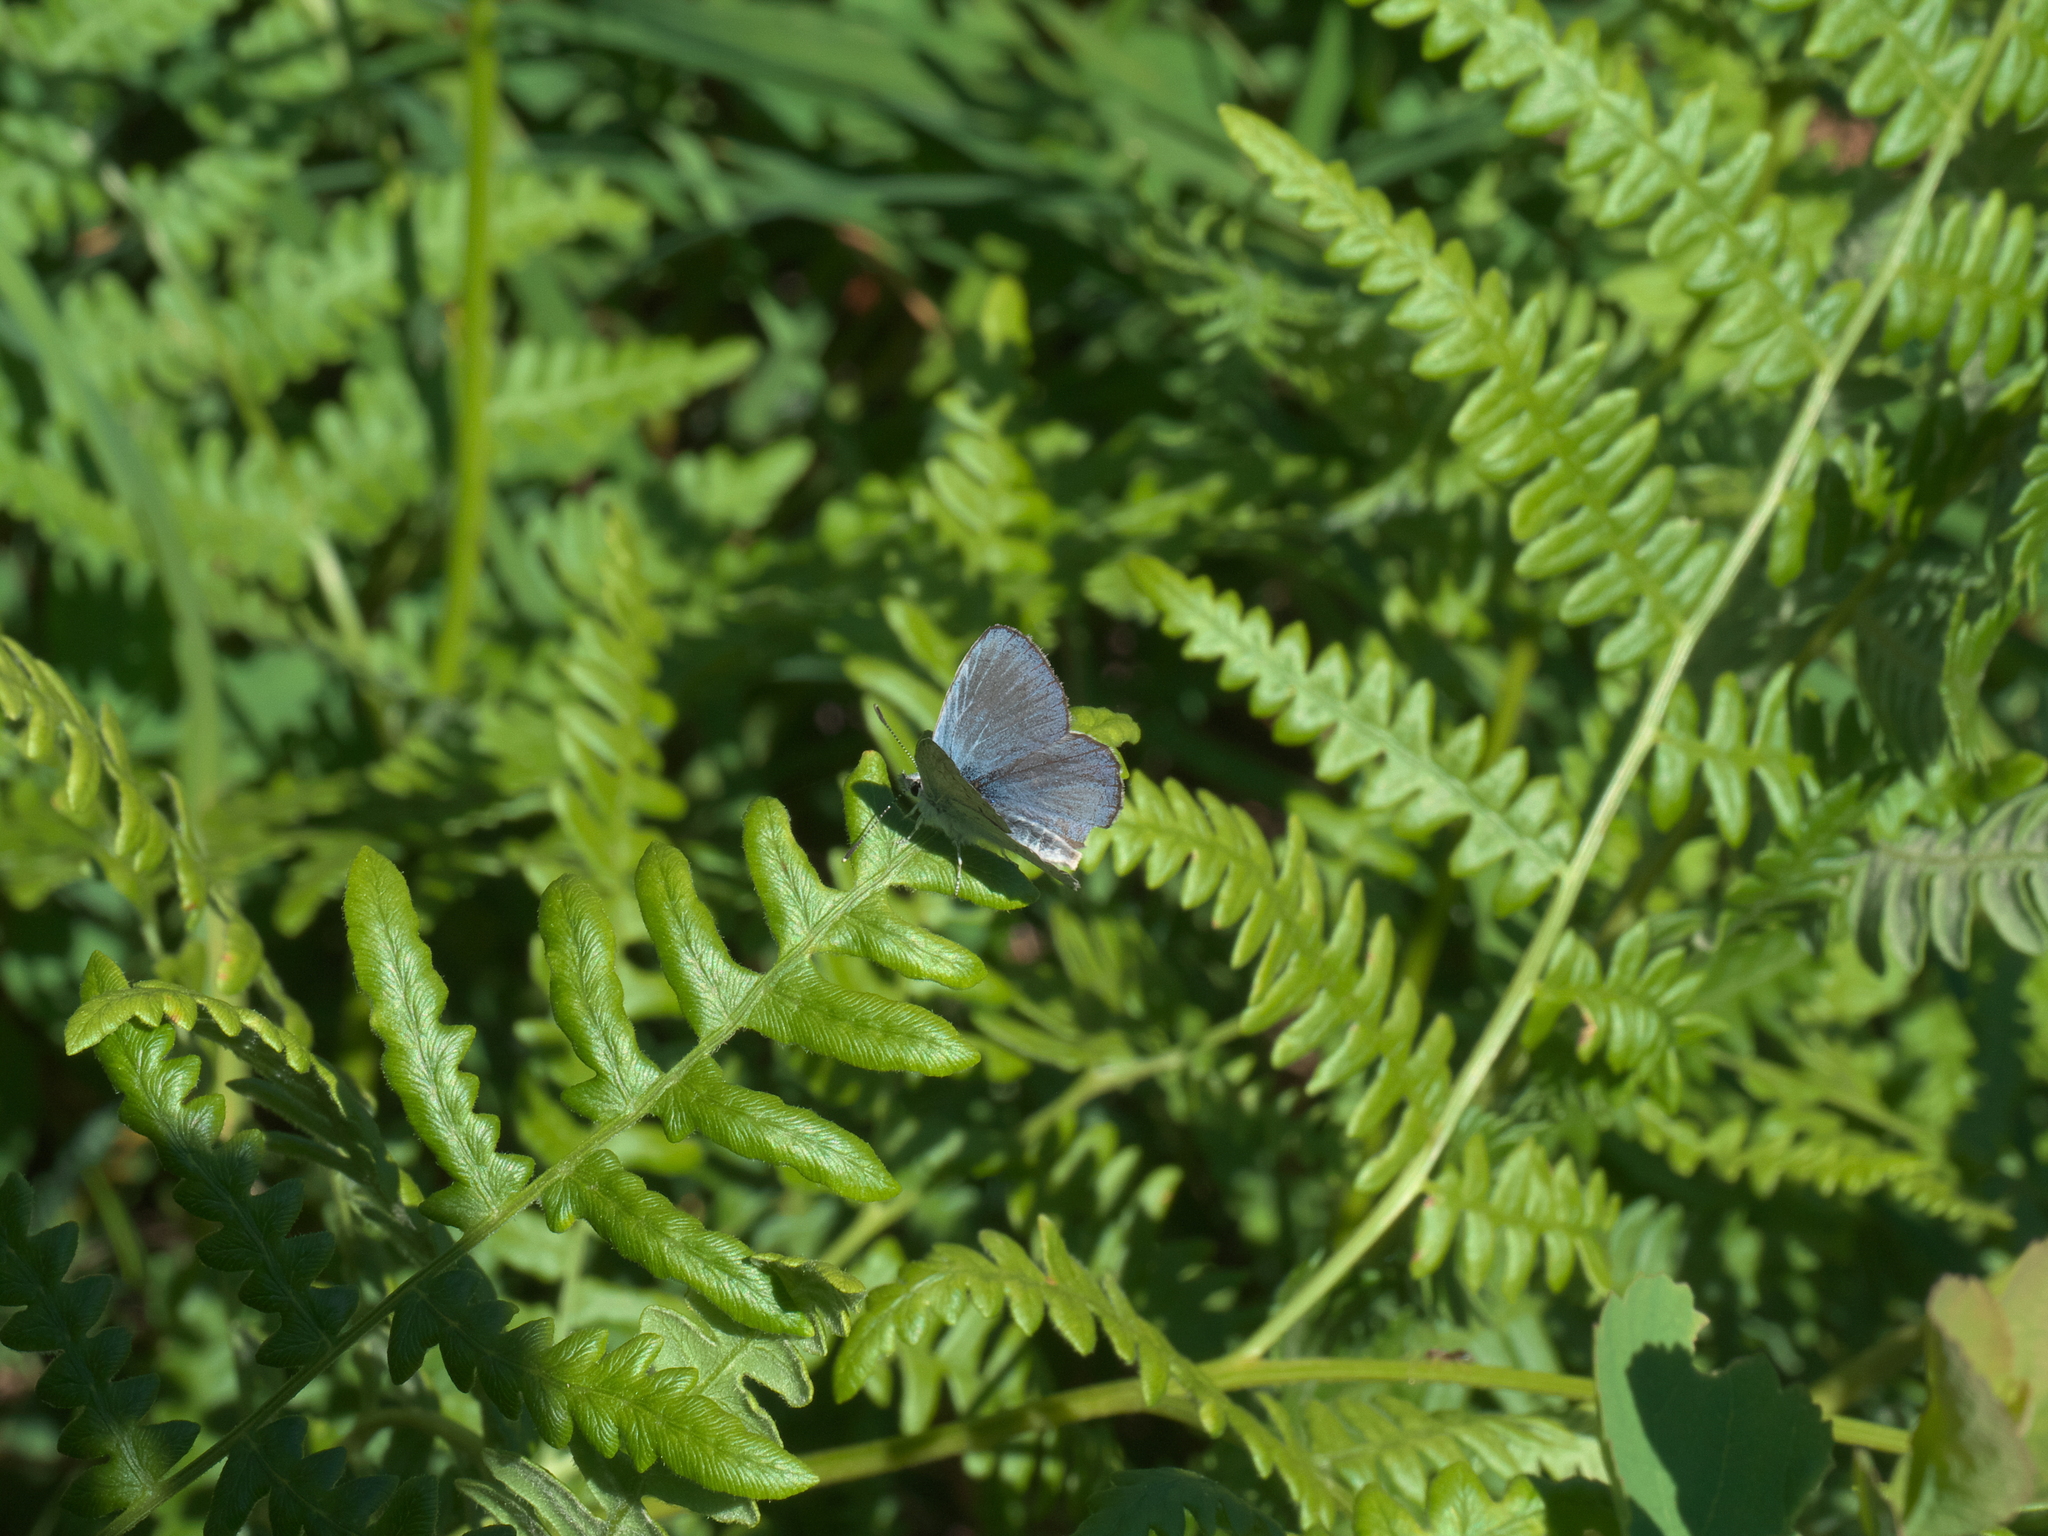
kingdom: Plantae
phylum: Tracheophyta
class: Polypodiopsida
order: Polypodiales
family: Dennstaedtiaceae
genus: Pteridium
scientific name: Pteridium aquilinum
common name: Bracken
